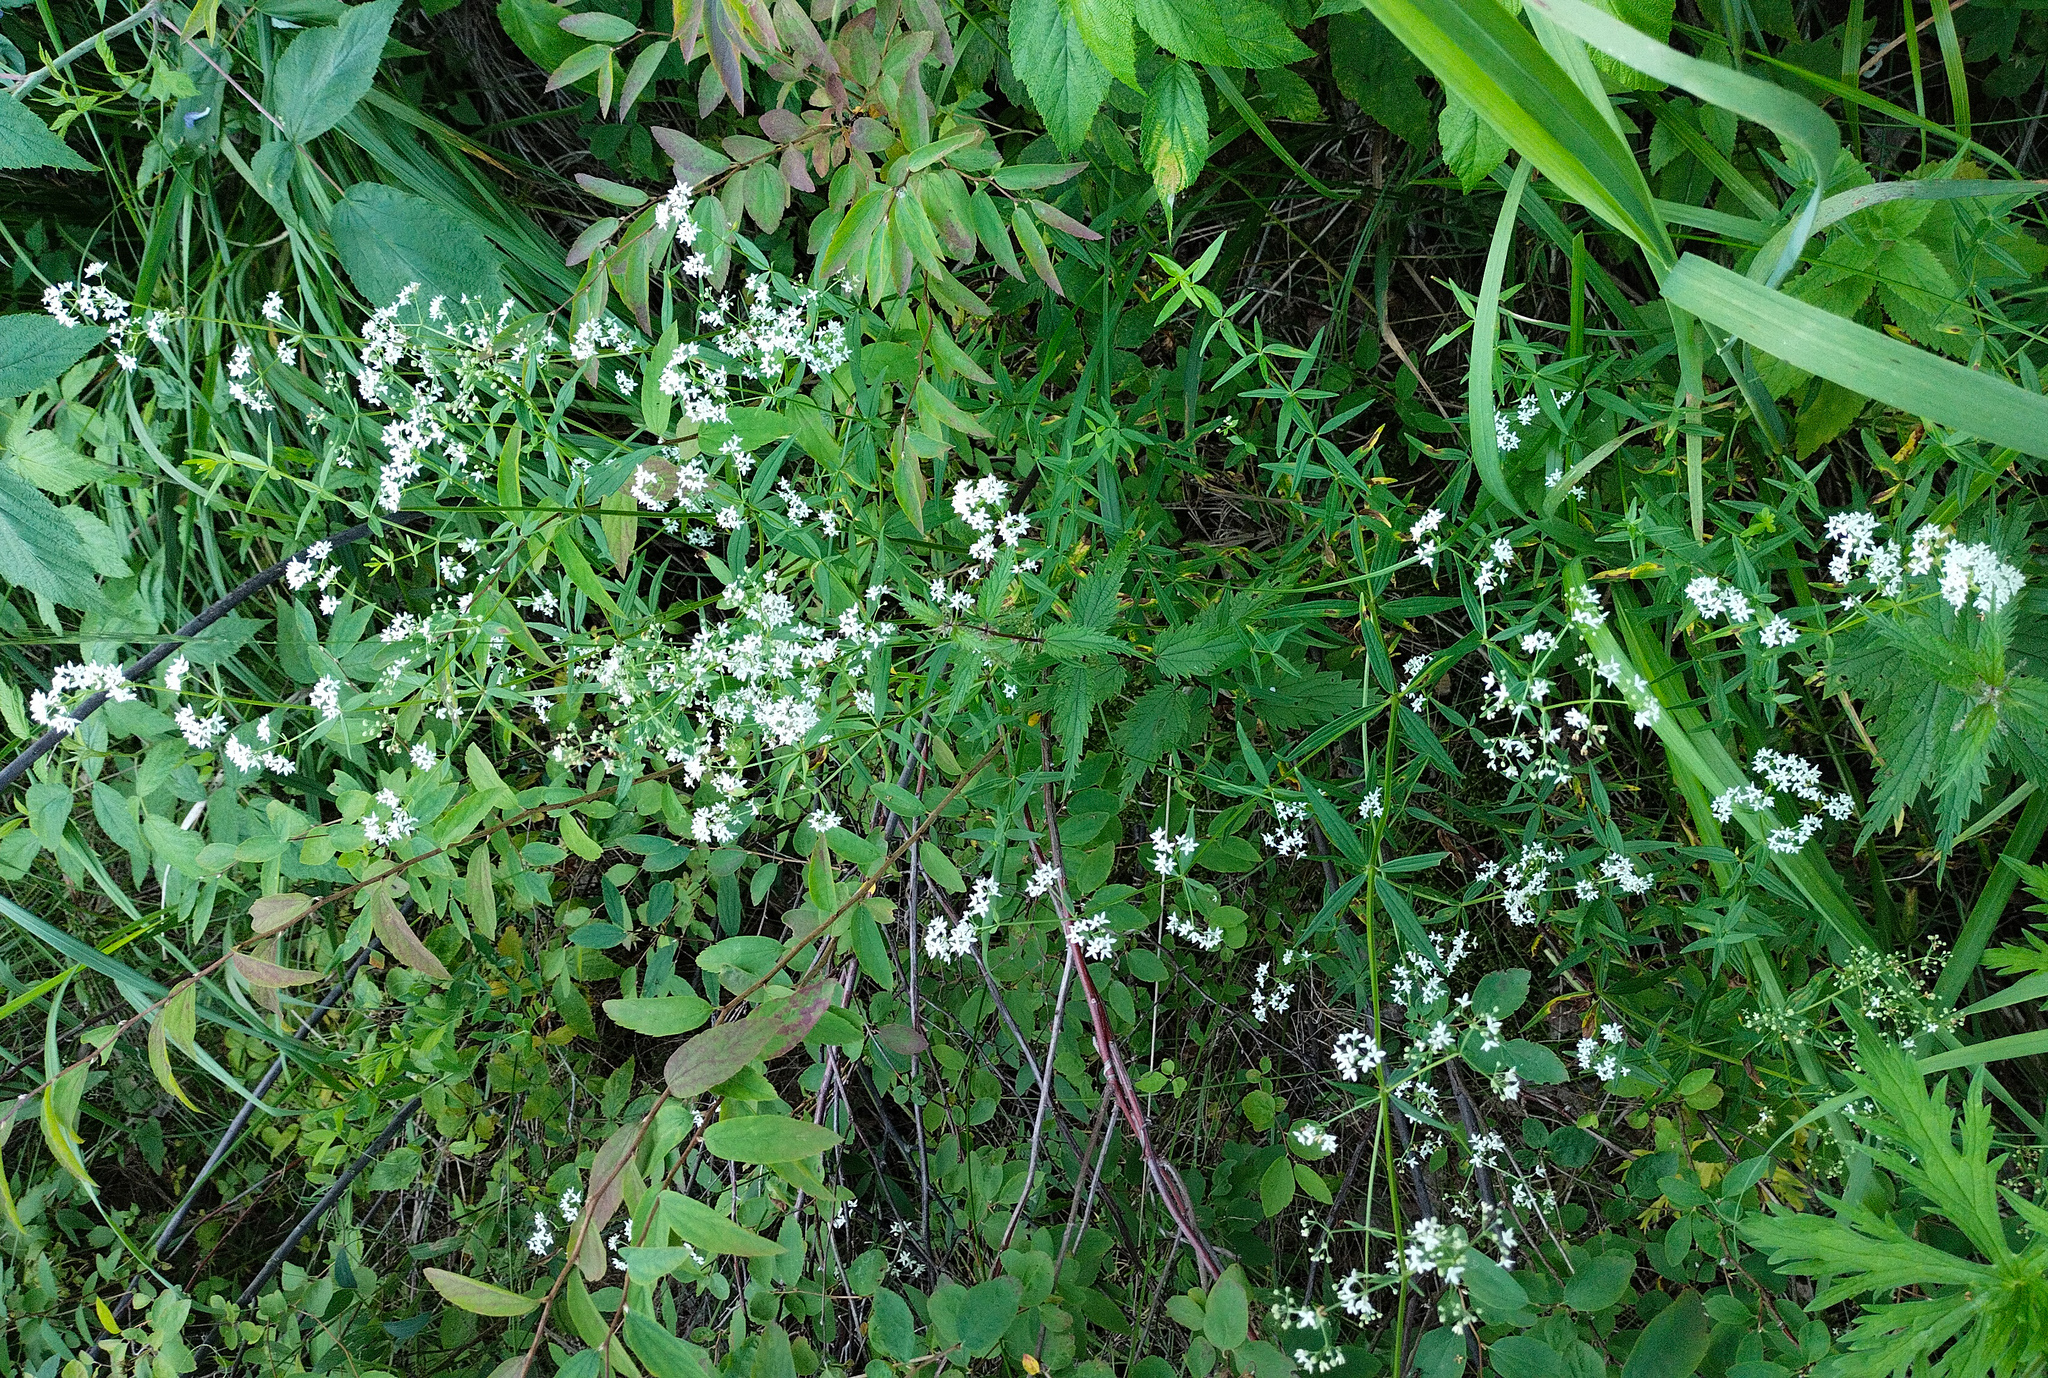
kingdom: Plantae
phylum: Tracheophyta
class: Magnoliopsida
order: Gentianales
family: Rubiaceae
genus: Galium
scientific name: Galium boreale
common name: Northern bedstraw
